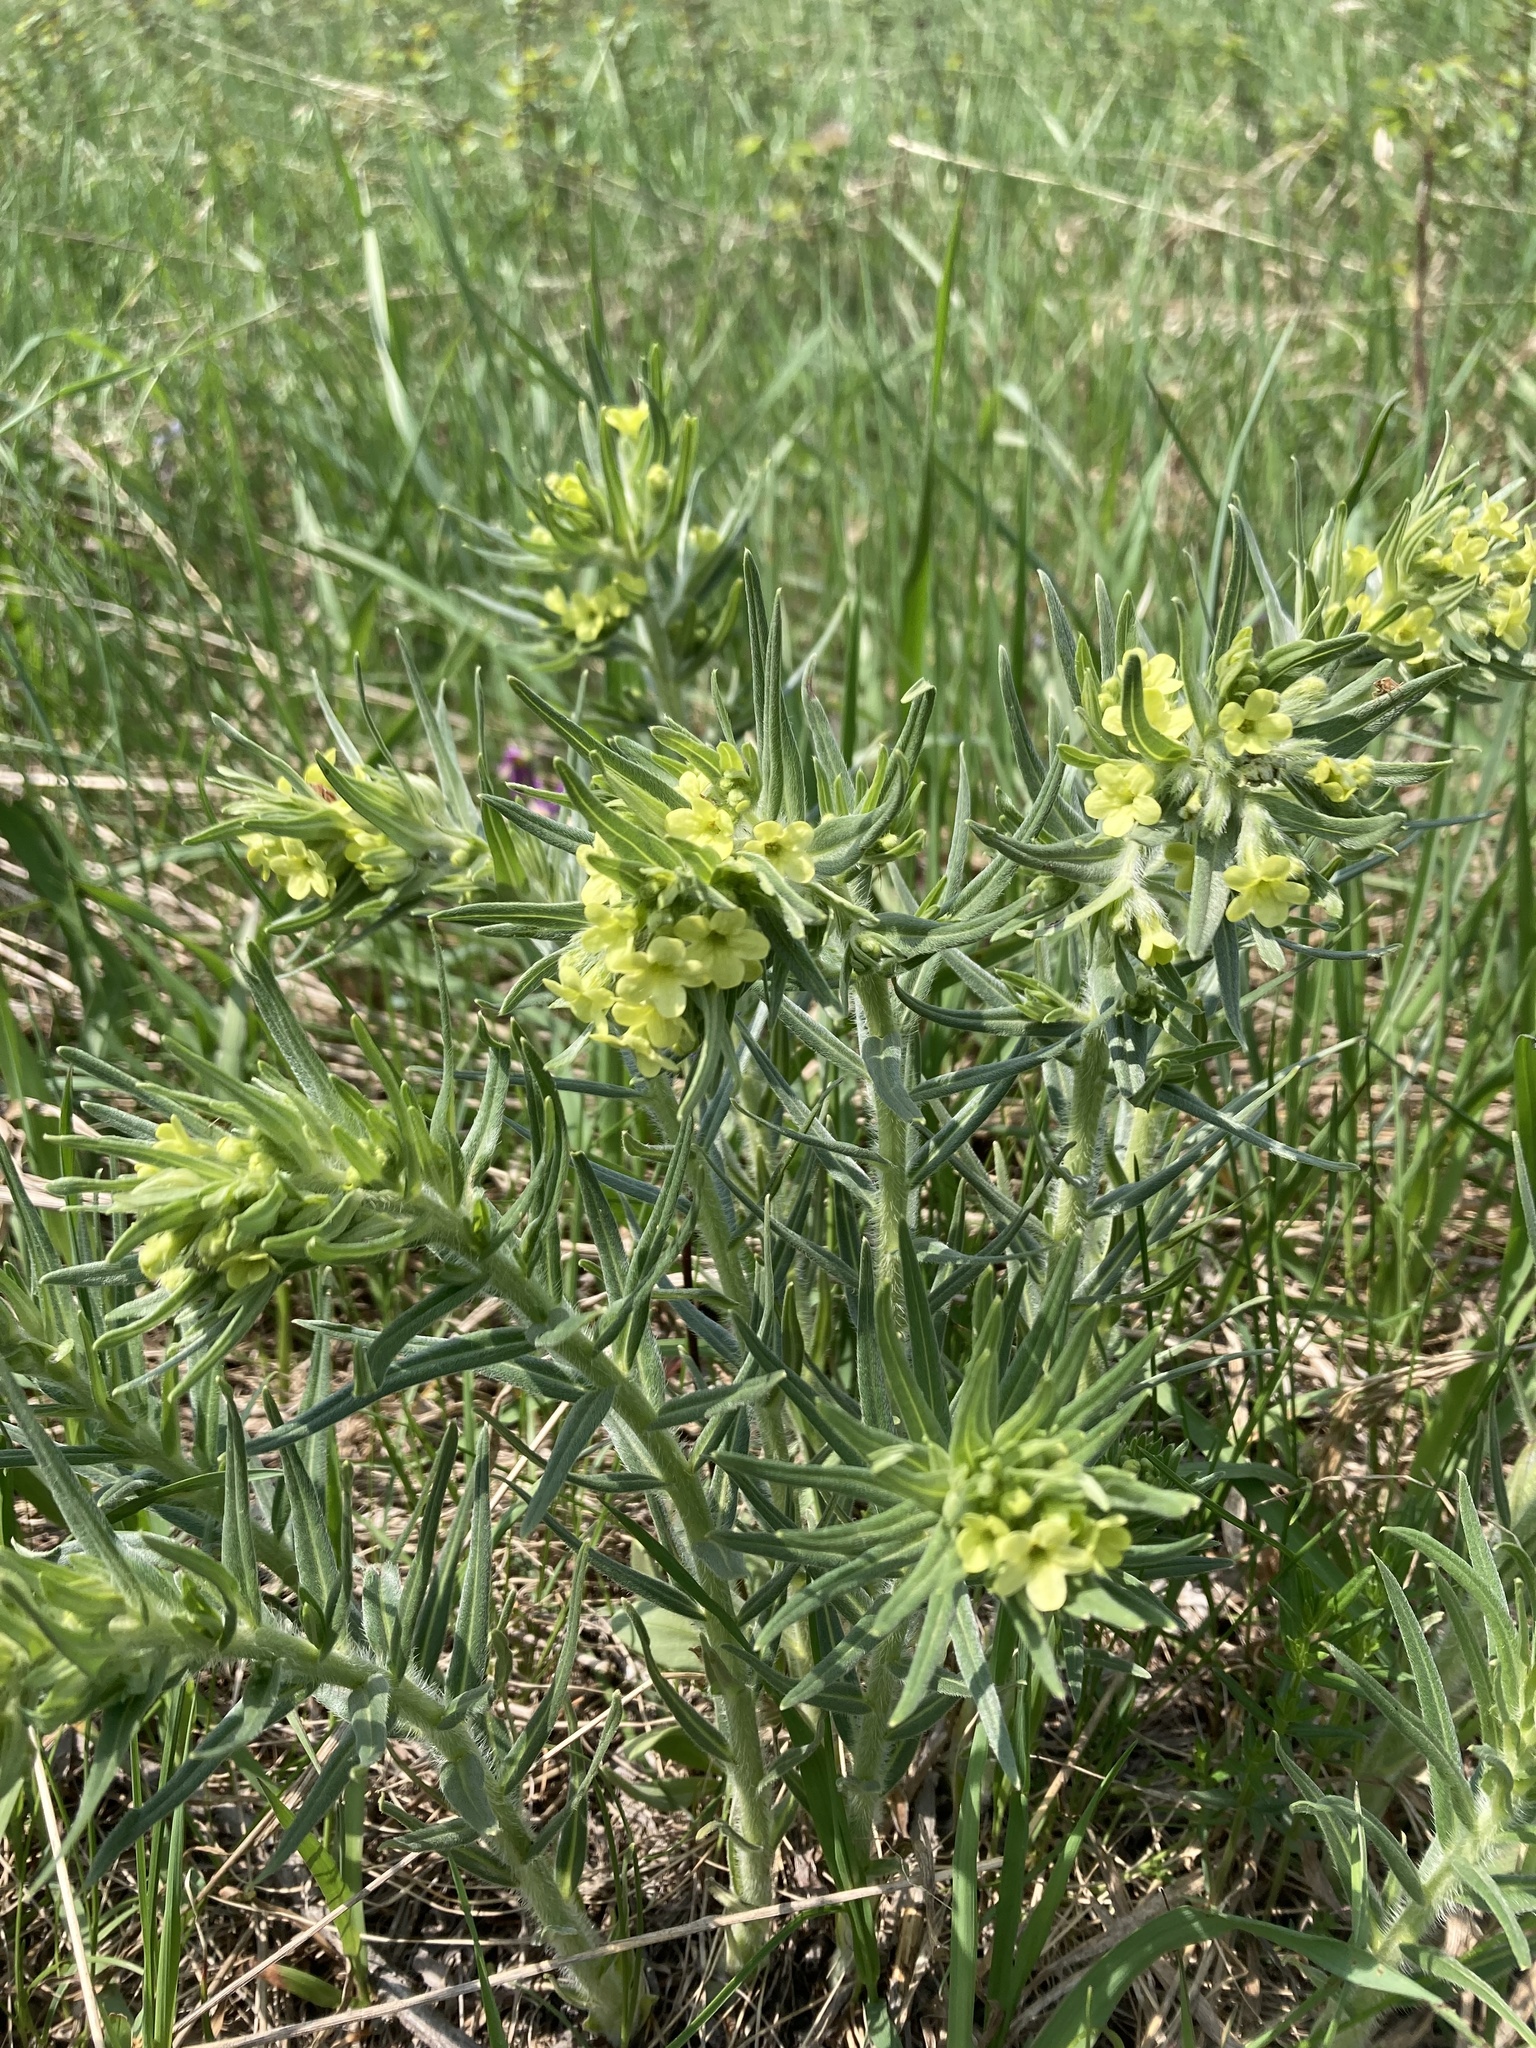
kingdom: Plantae
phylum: Tracheophyta
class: Magnoliopsida
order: Boraginales
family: Boraginaceae
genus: Lithospermum
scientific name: Lithospermum ruderale
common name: Western gromwell
